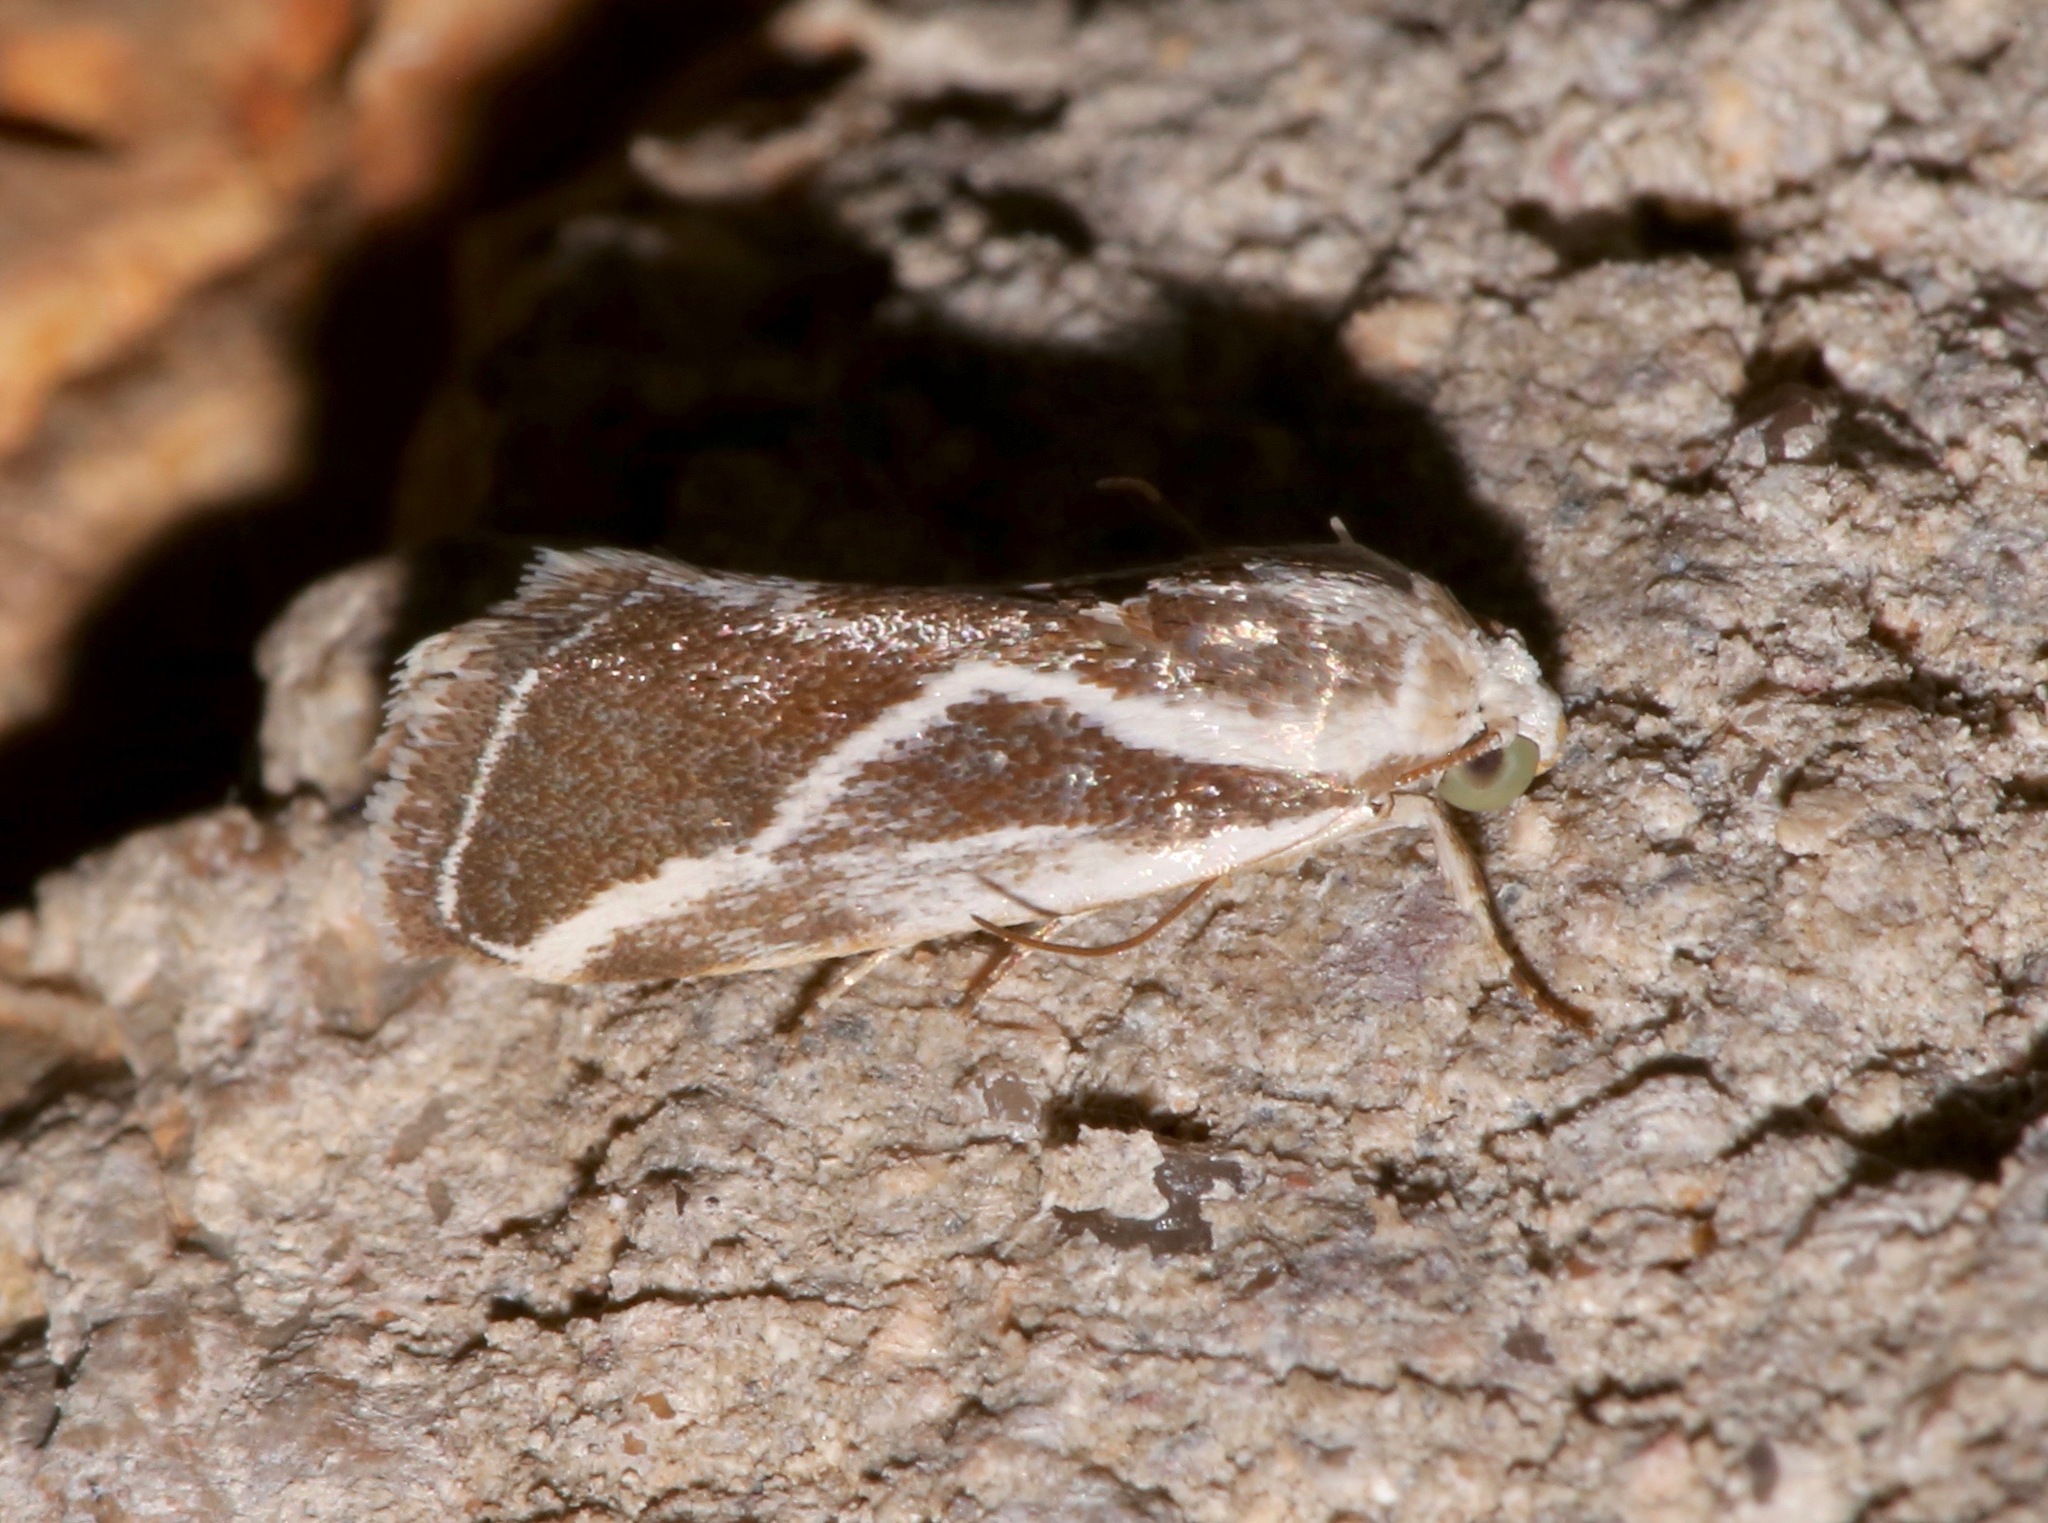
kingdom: Animalia
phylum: Arthropoda
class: Insecta
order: Lepidoptera
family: Noctuidae
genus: Acontia
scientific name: Acontia alata
